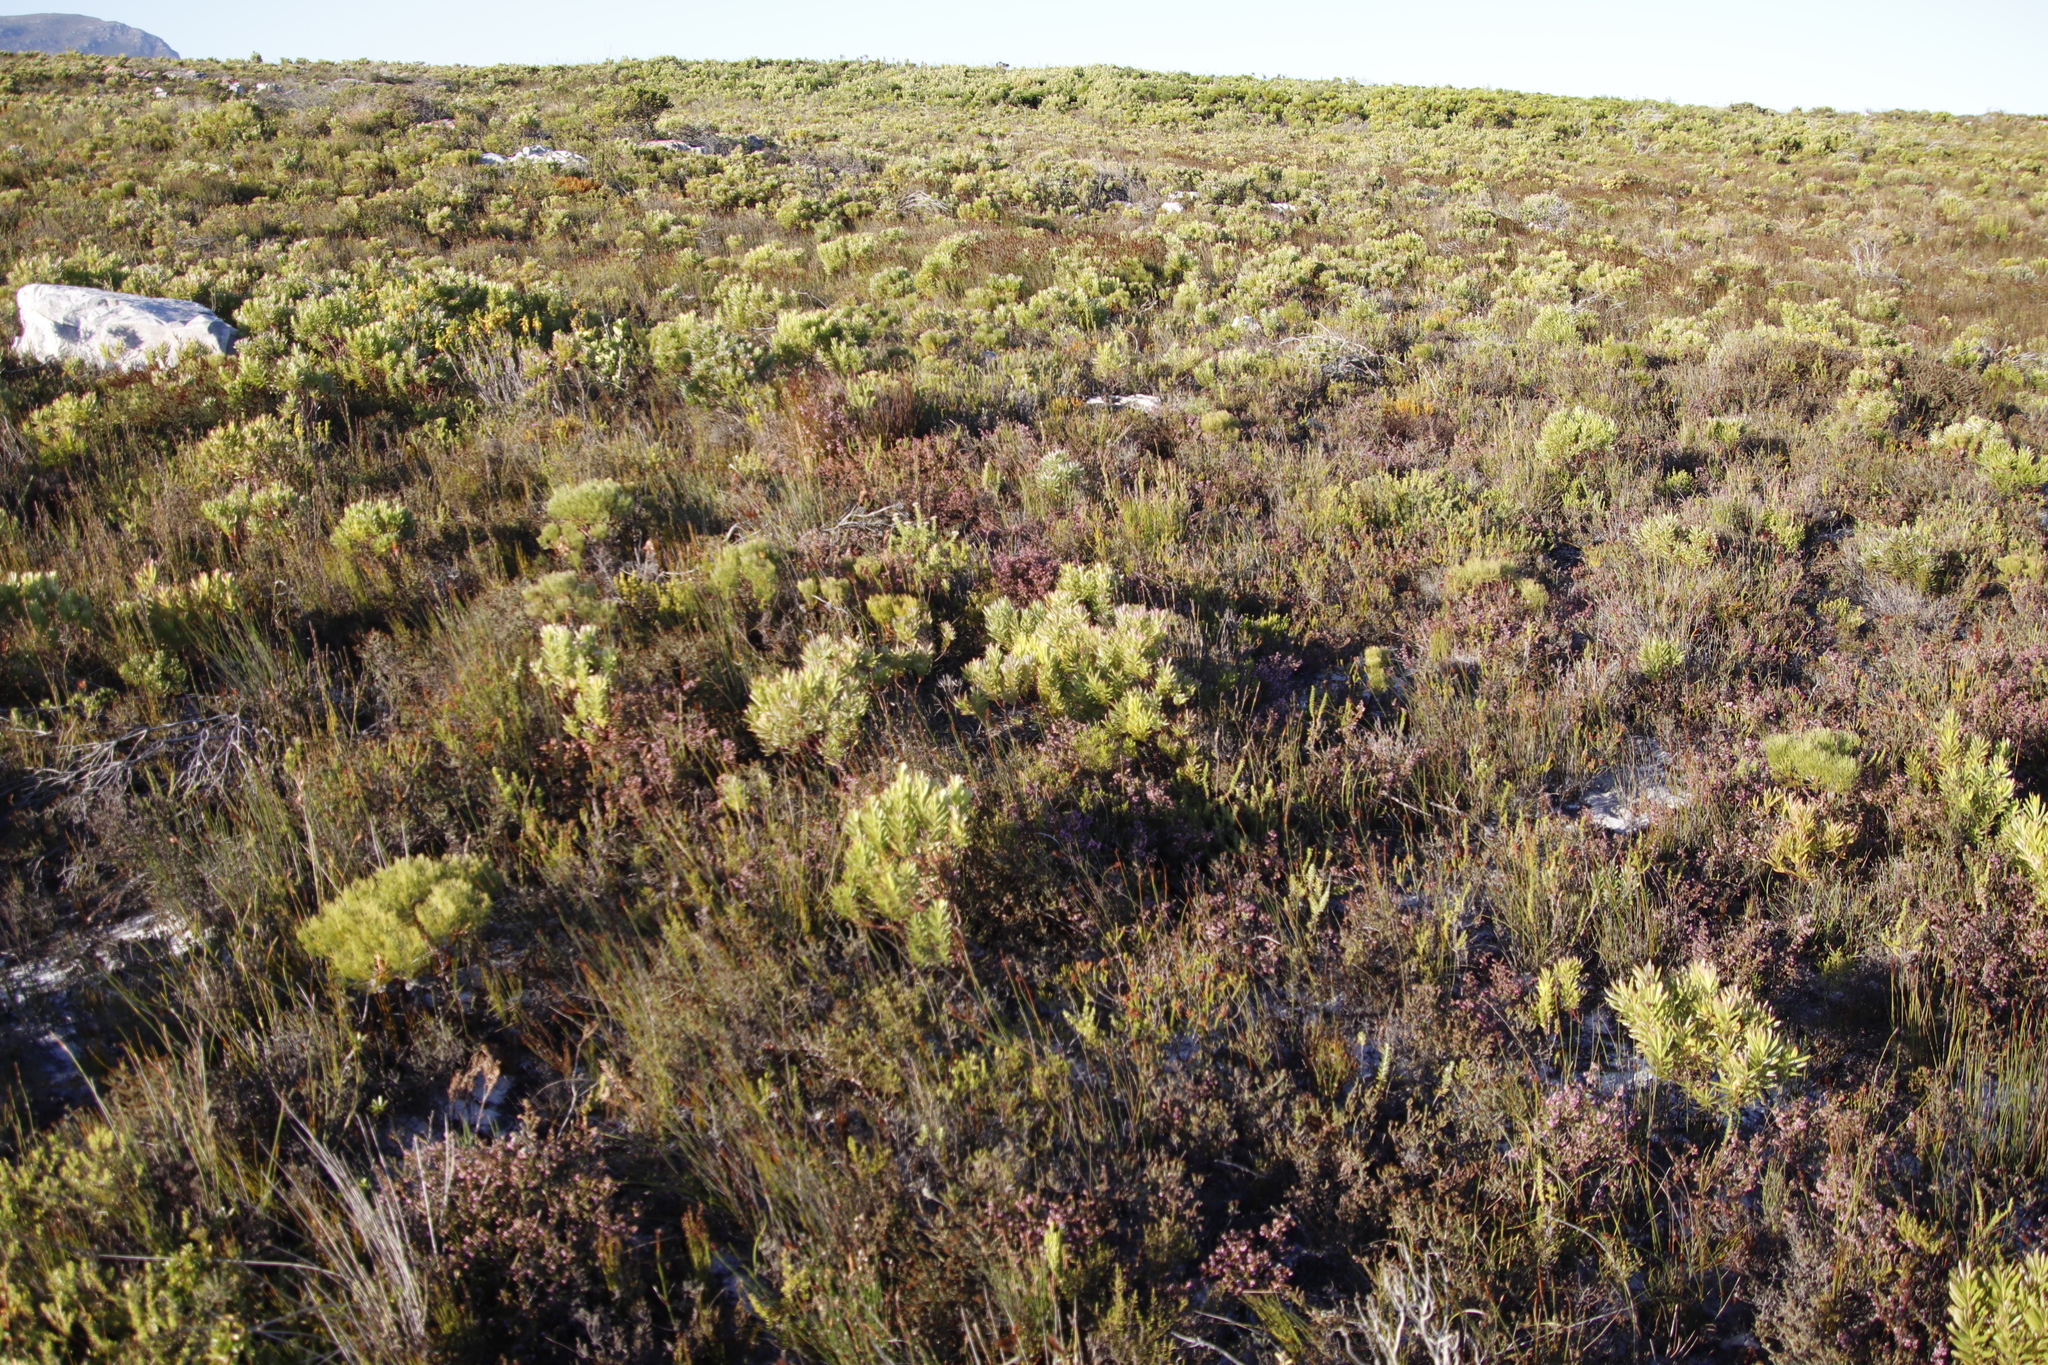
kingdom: Plantae
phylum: Tracheophyta
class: Magnoliopsida
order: Proteales
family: Proteaceae
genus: Diastella
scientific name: Diastella divaricata
